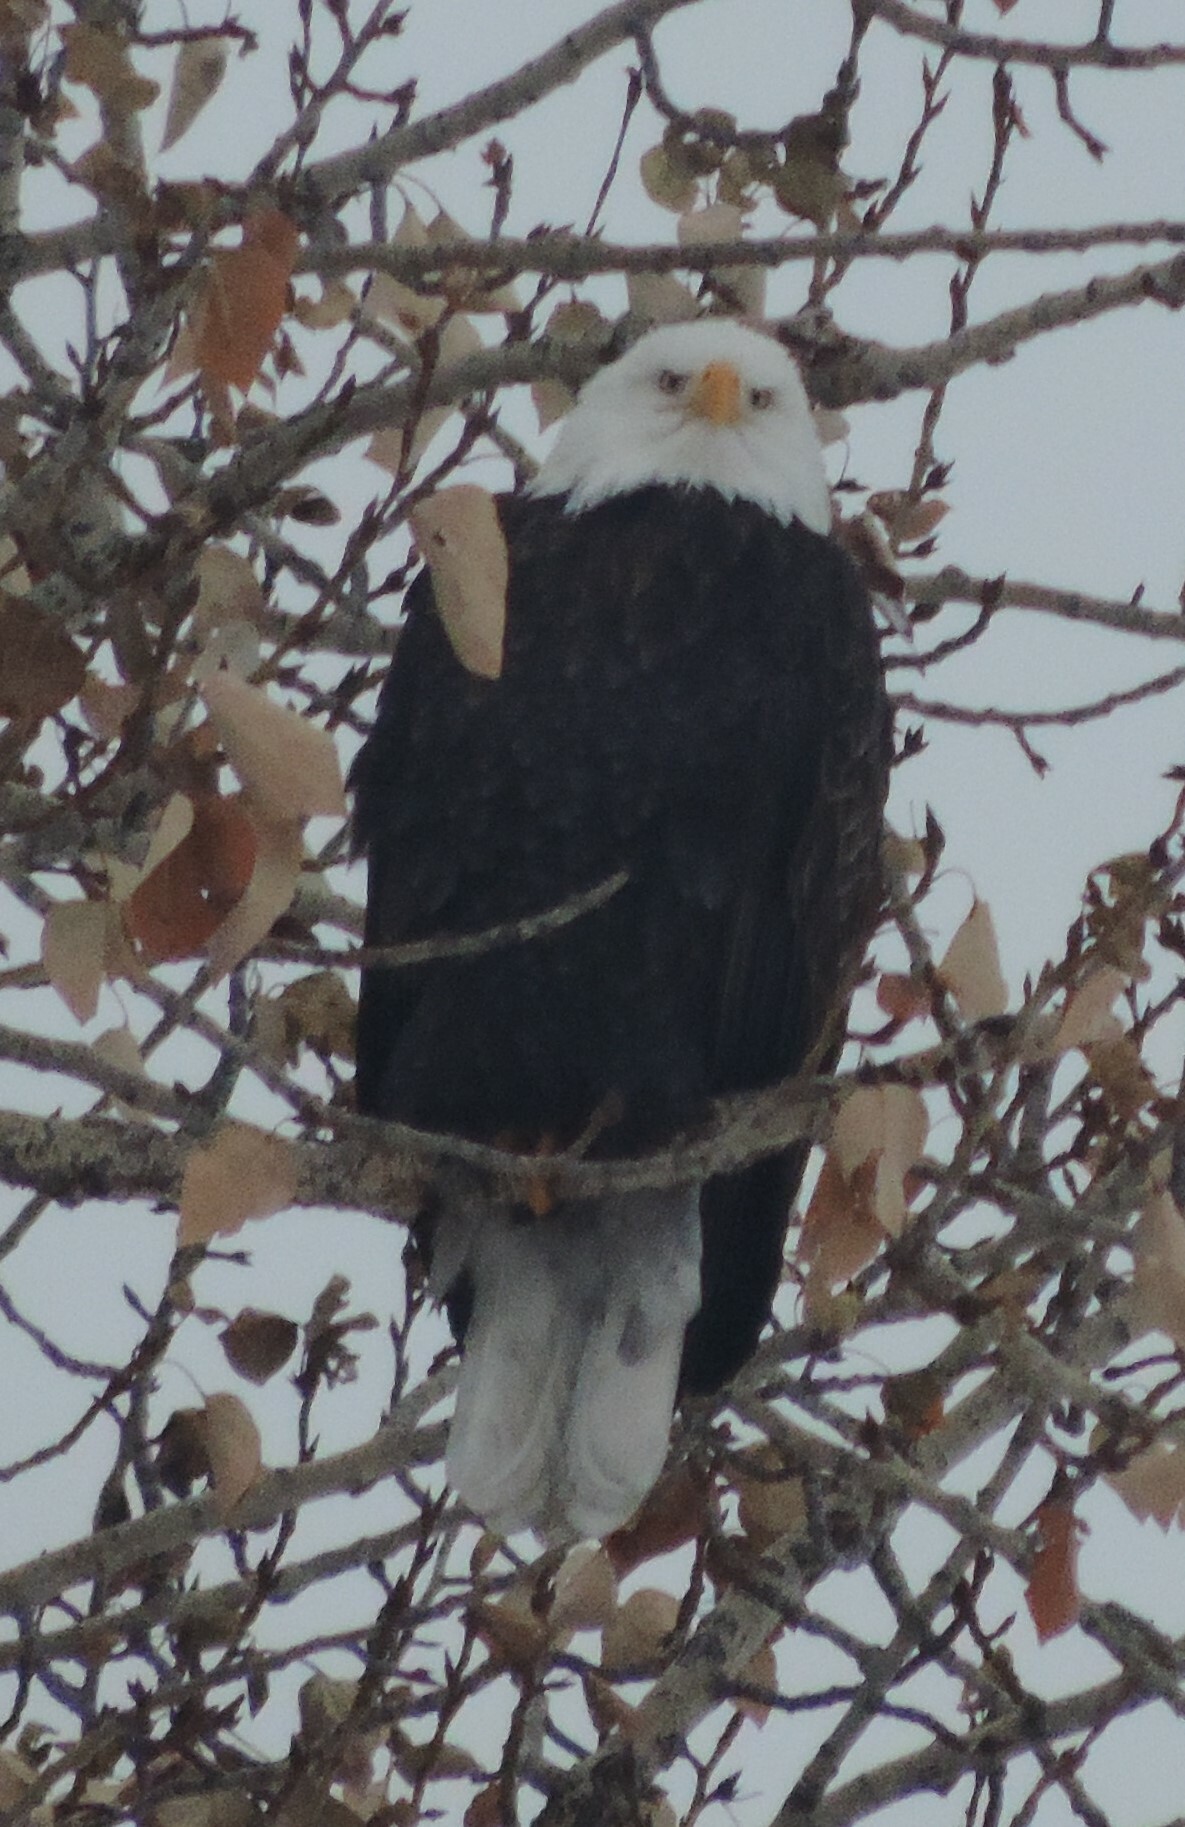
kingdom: Animalia
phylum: Chordata
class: Aves
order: Accipitriformes
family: Accipitridae
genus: Haliaeetus
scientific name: Haliaeetus leucocephalus
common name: Bald eagle
